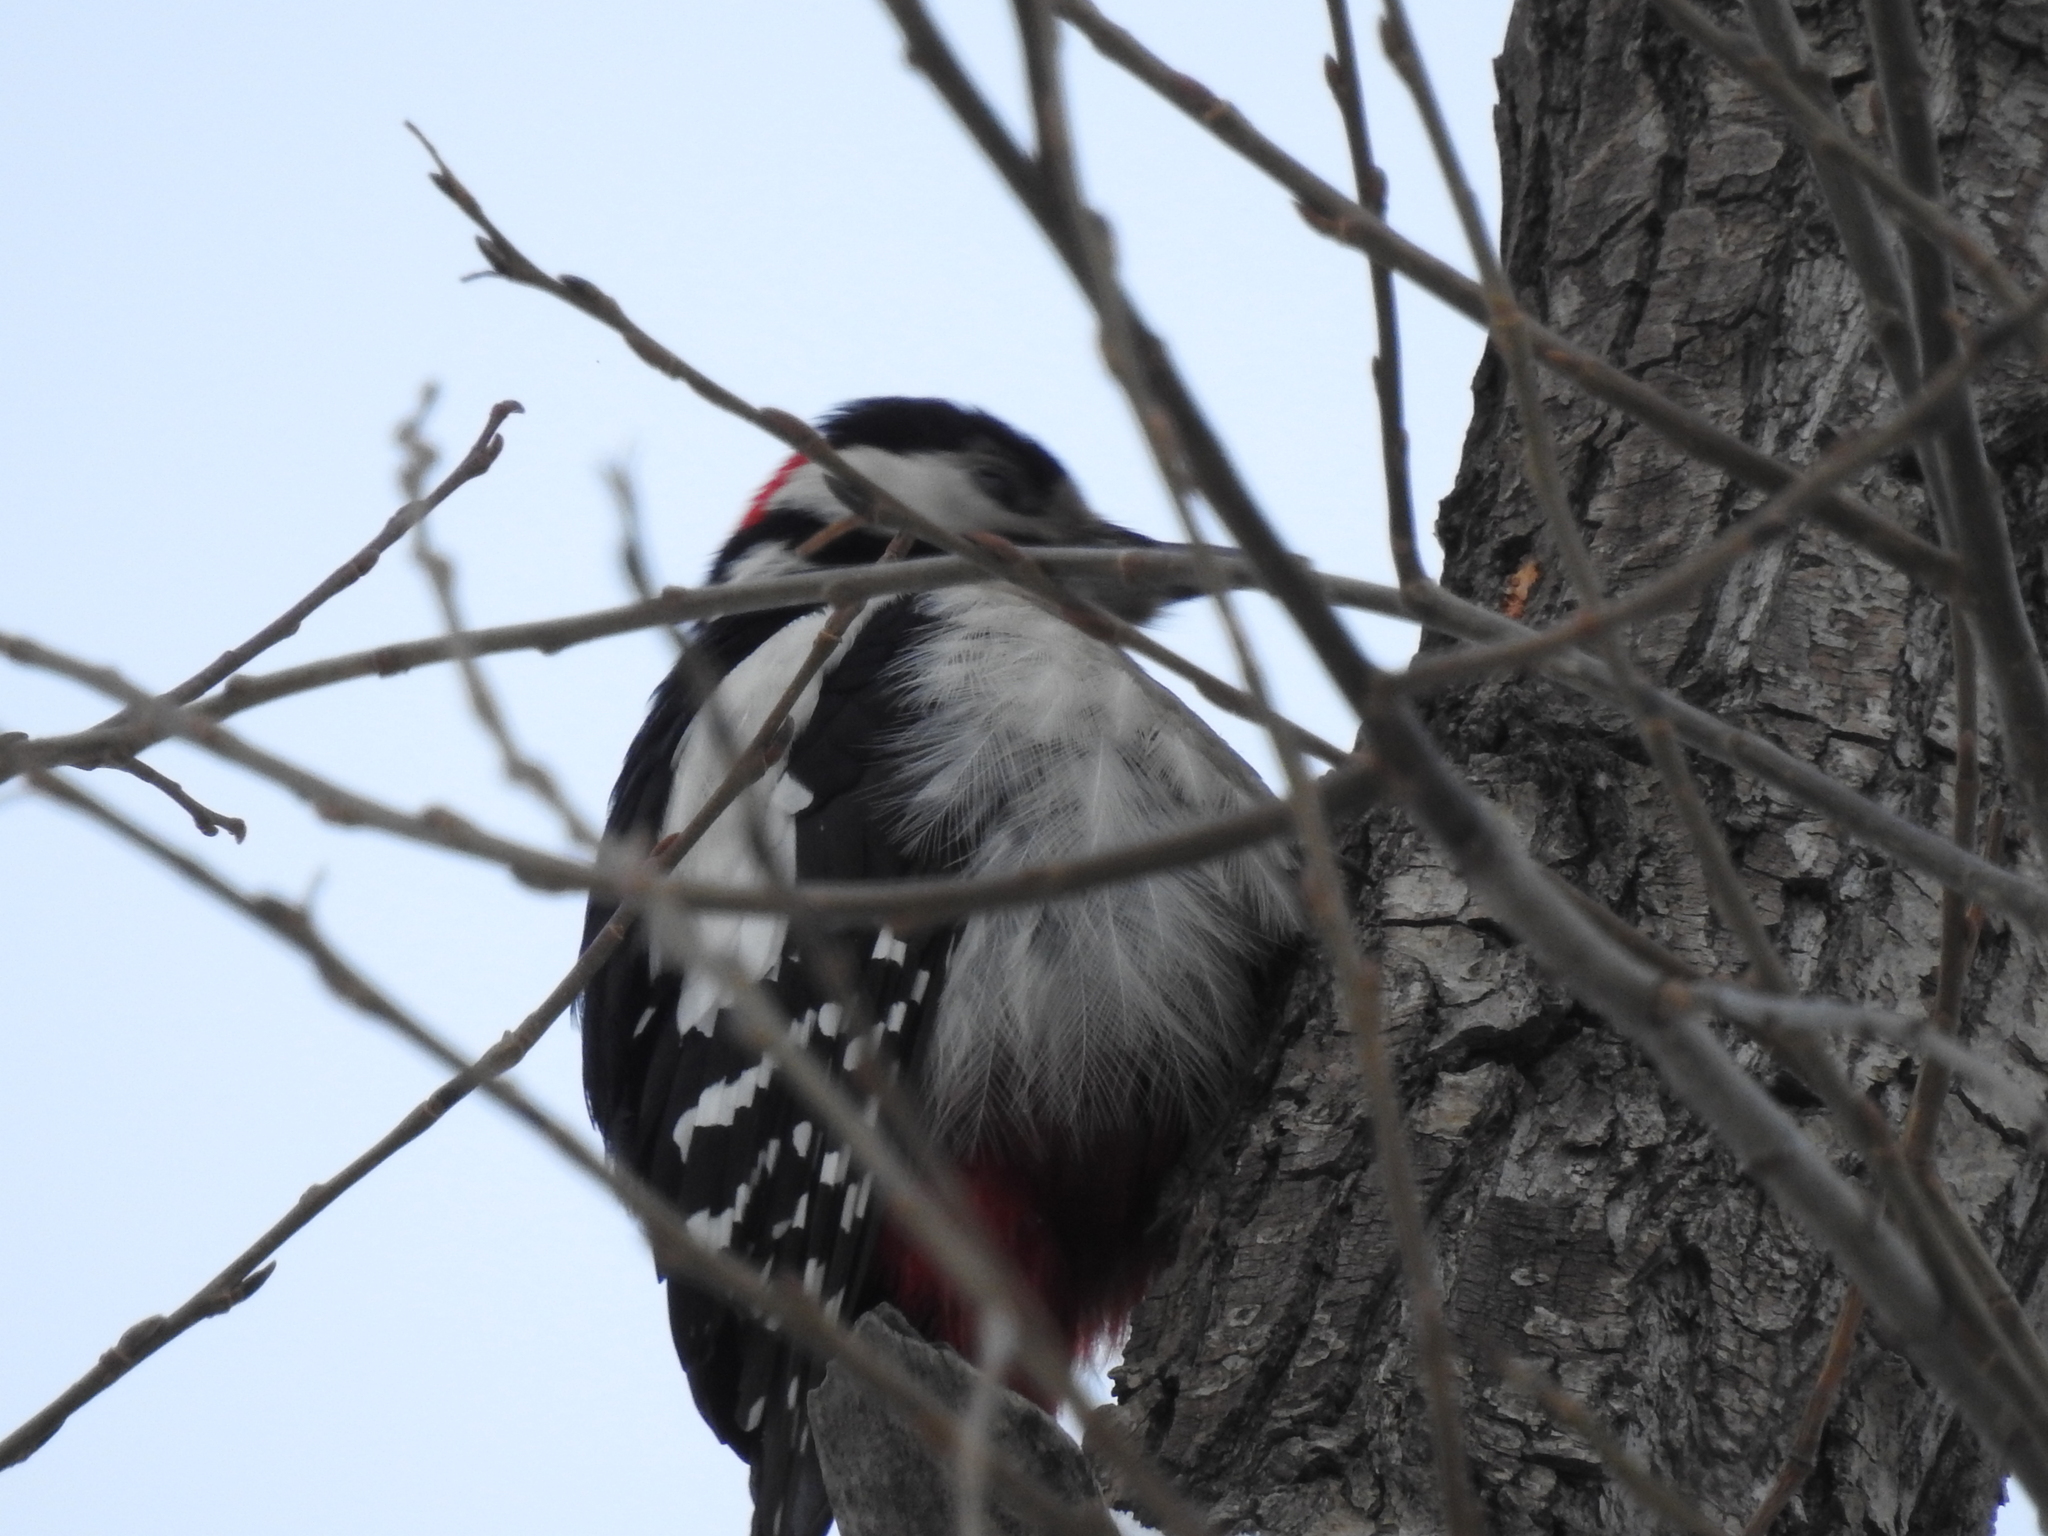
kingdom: Animalia
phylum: Chordata
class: Aves
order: Piciformes
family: Picidae
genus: Dendrocopos
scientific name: Dendrocopos major
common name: Great spotted woodpecker
